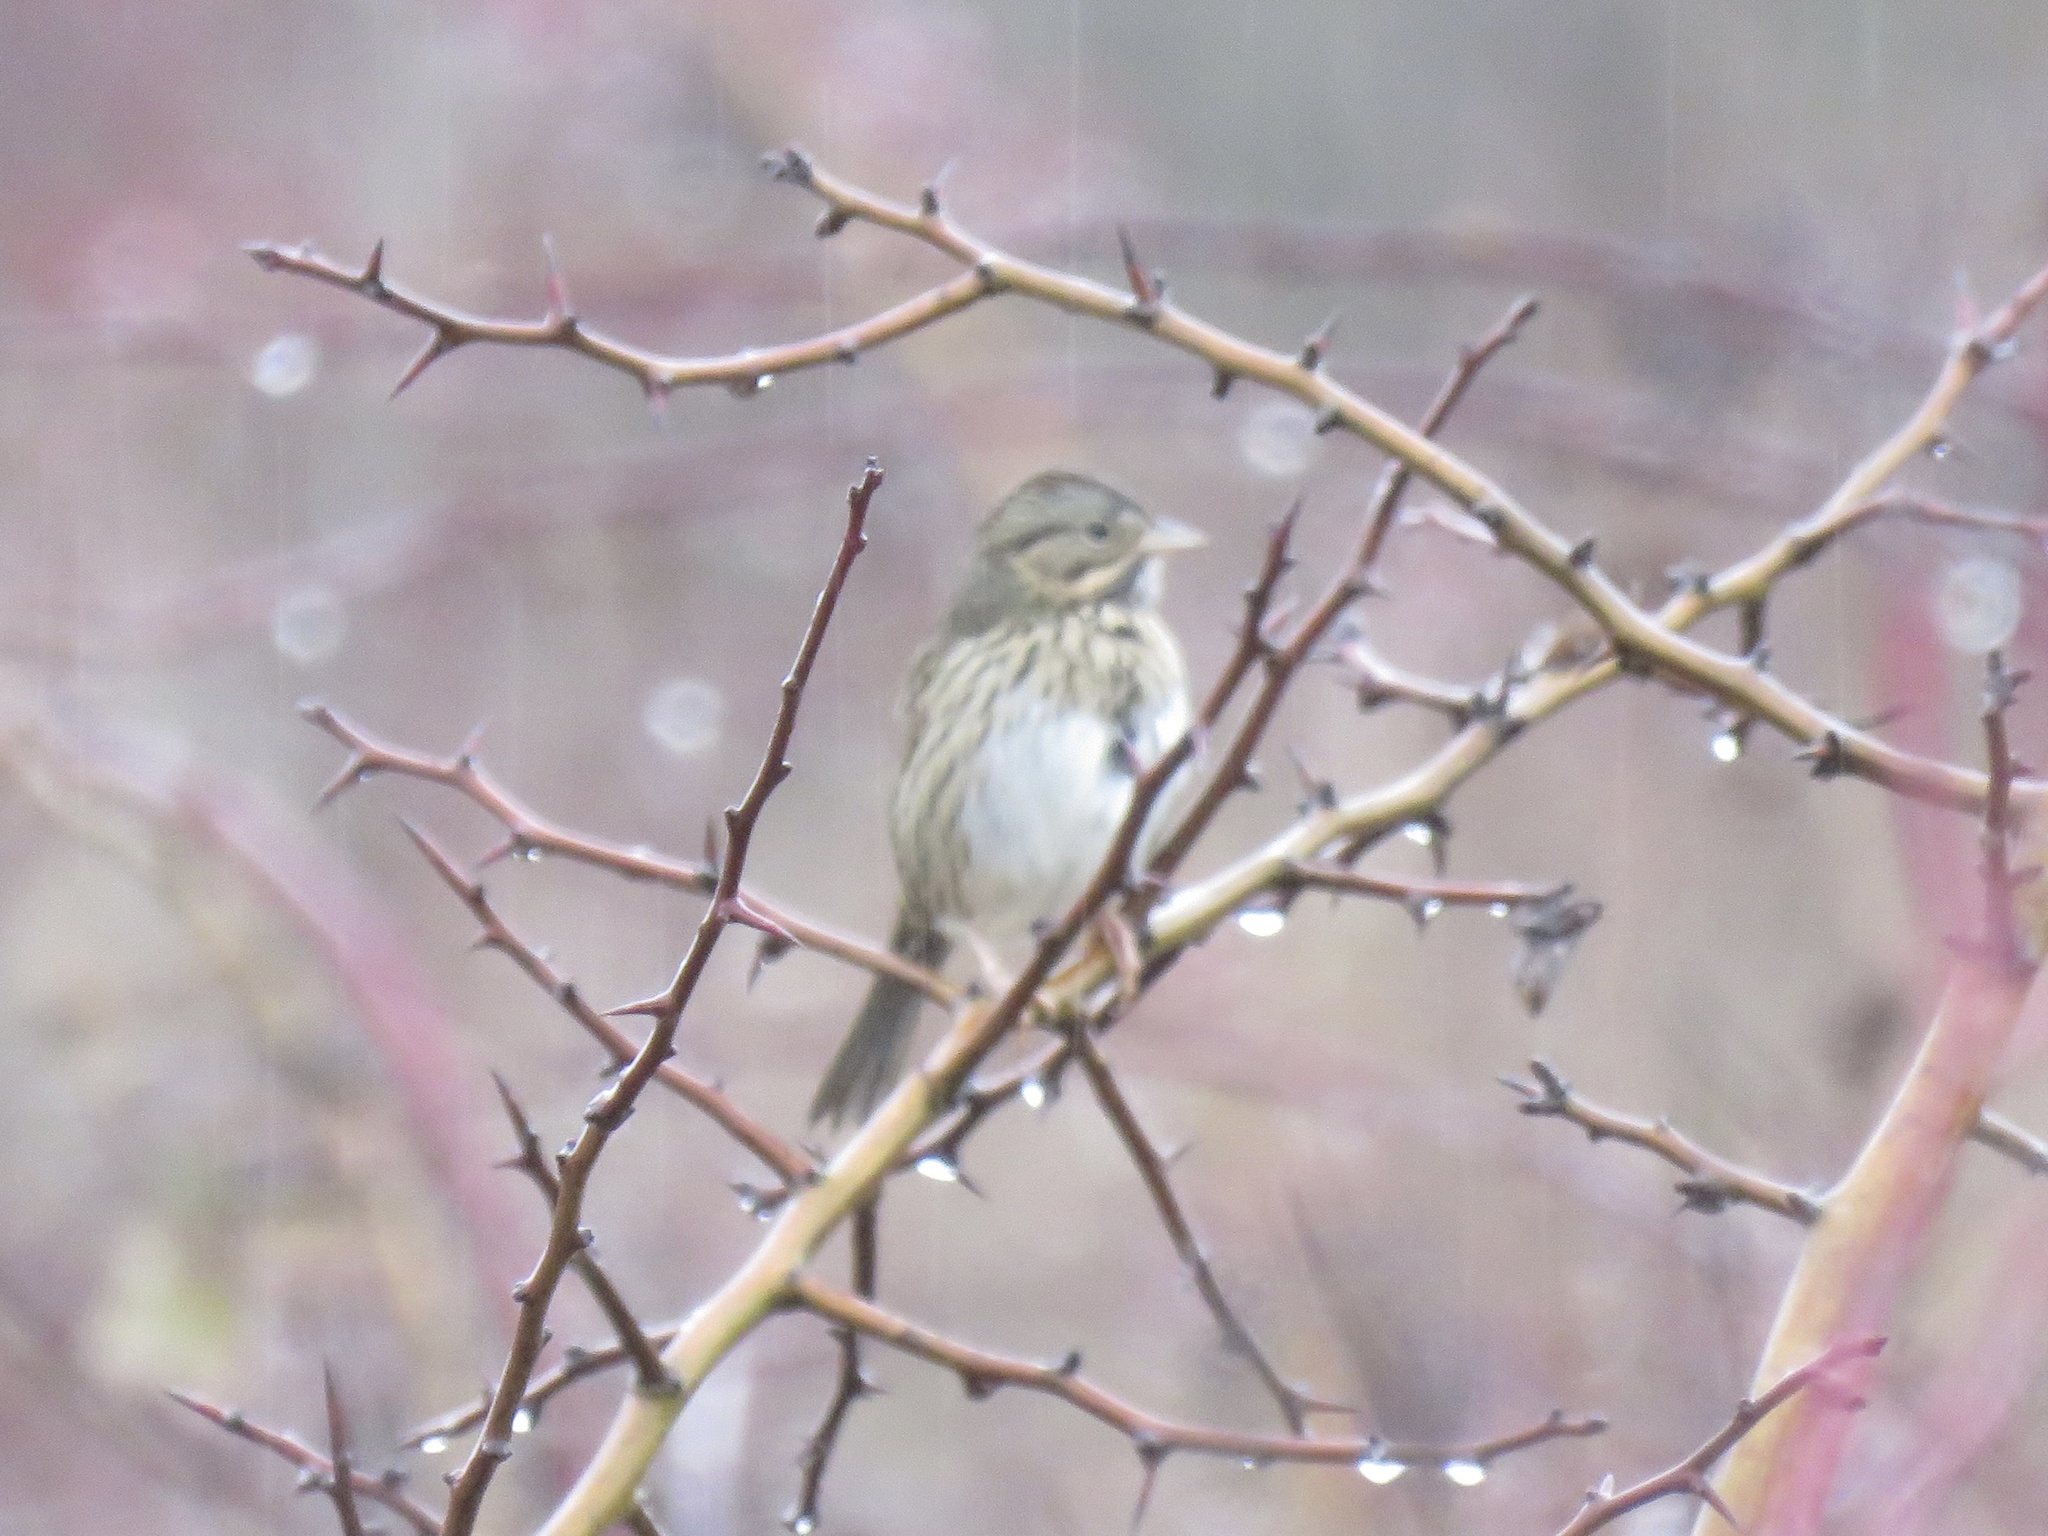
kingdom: Animalia
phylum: Chordata
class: Aves
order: Passeriformes
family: Passerellidae
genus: Melospiza
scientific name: Melospiza lincolnii
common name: Lincoln's sparrow
